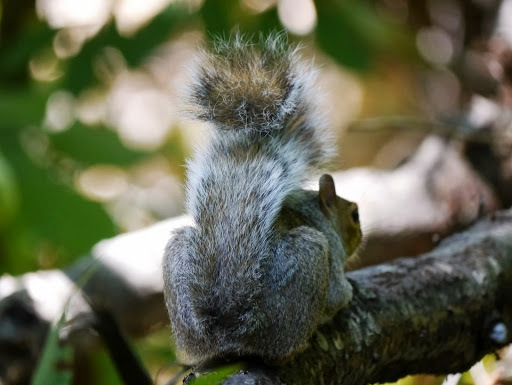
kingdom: Animalia
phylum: Chordata
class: Mammalia
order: Rodentia
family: Sciuridae
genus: Sciurus
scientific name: Sciurus carolinensis
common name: Eastern gray squirrel
